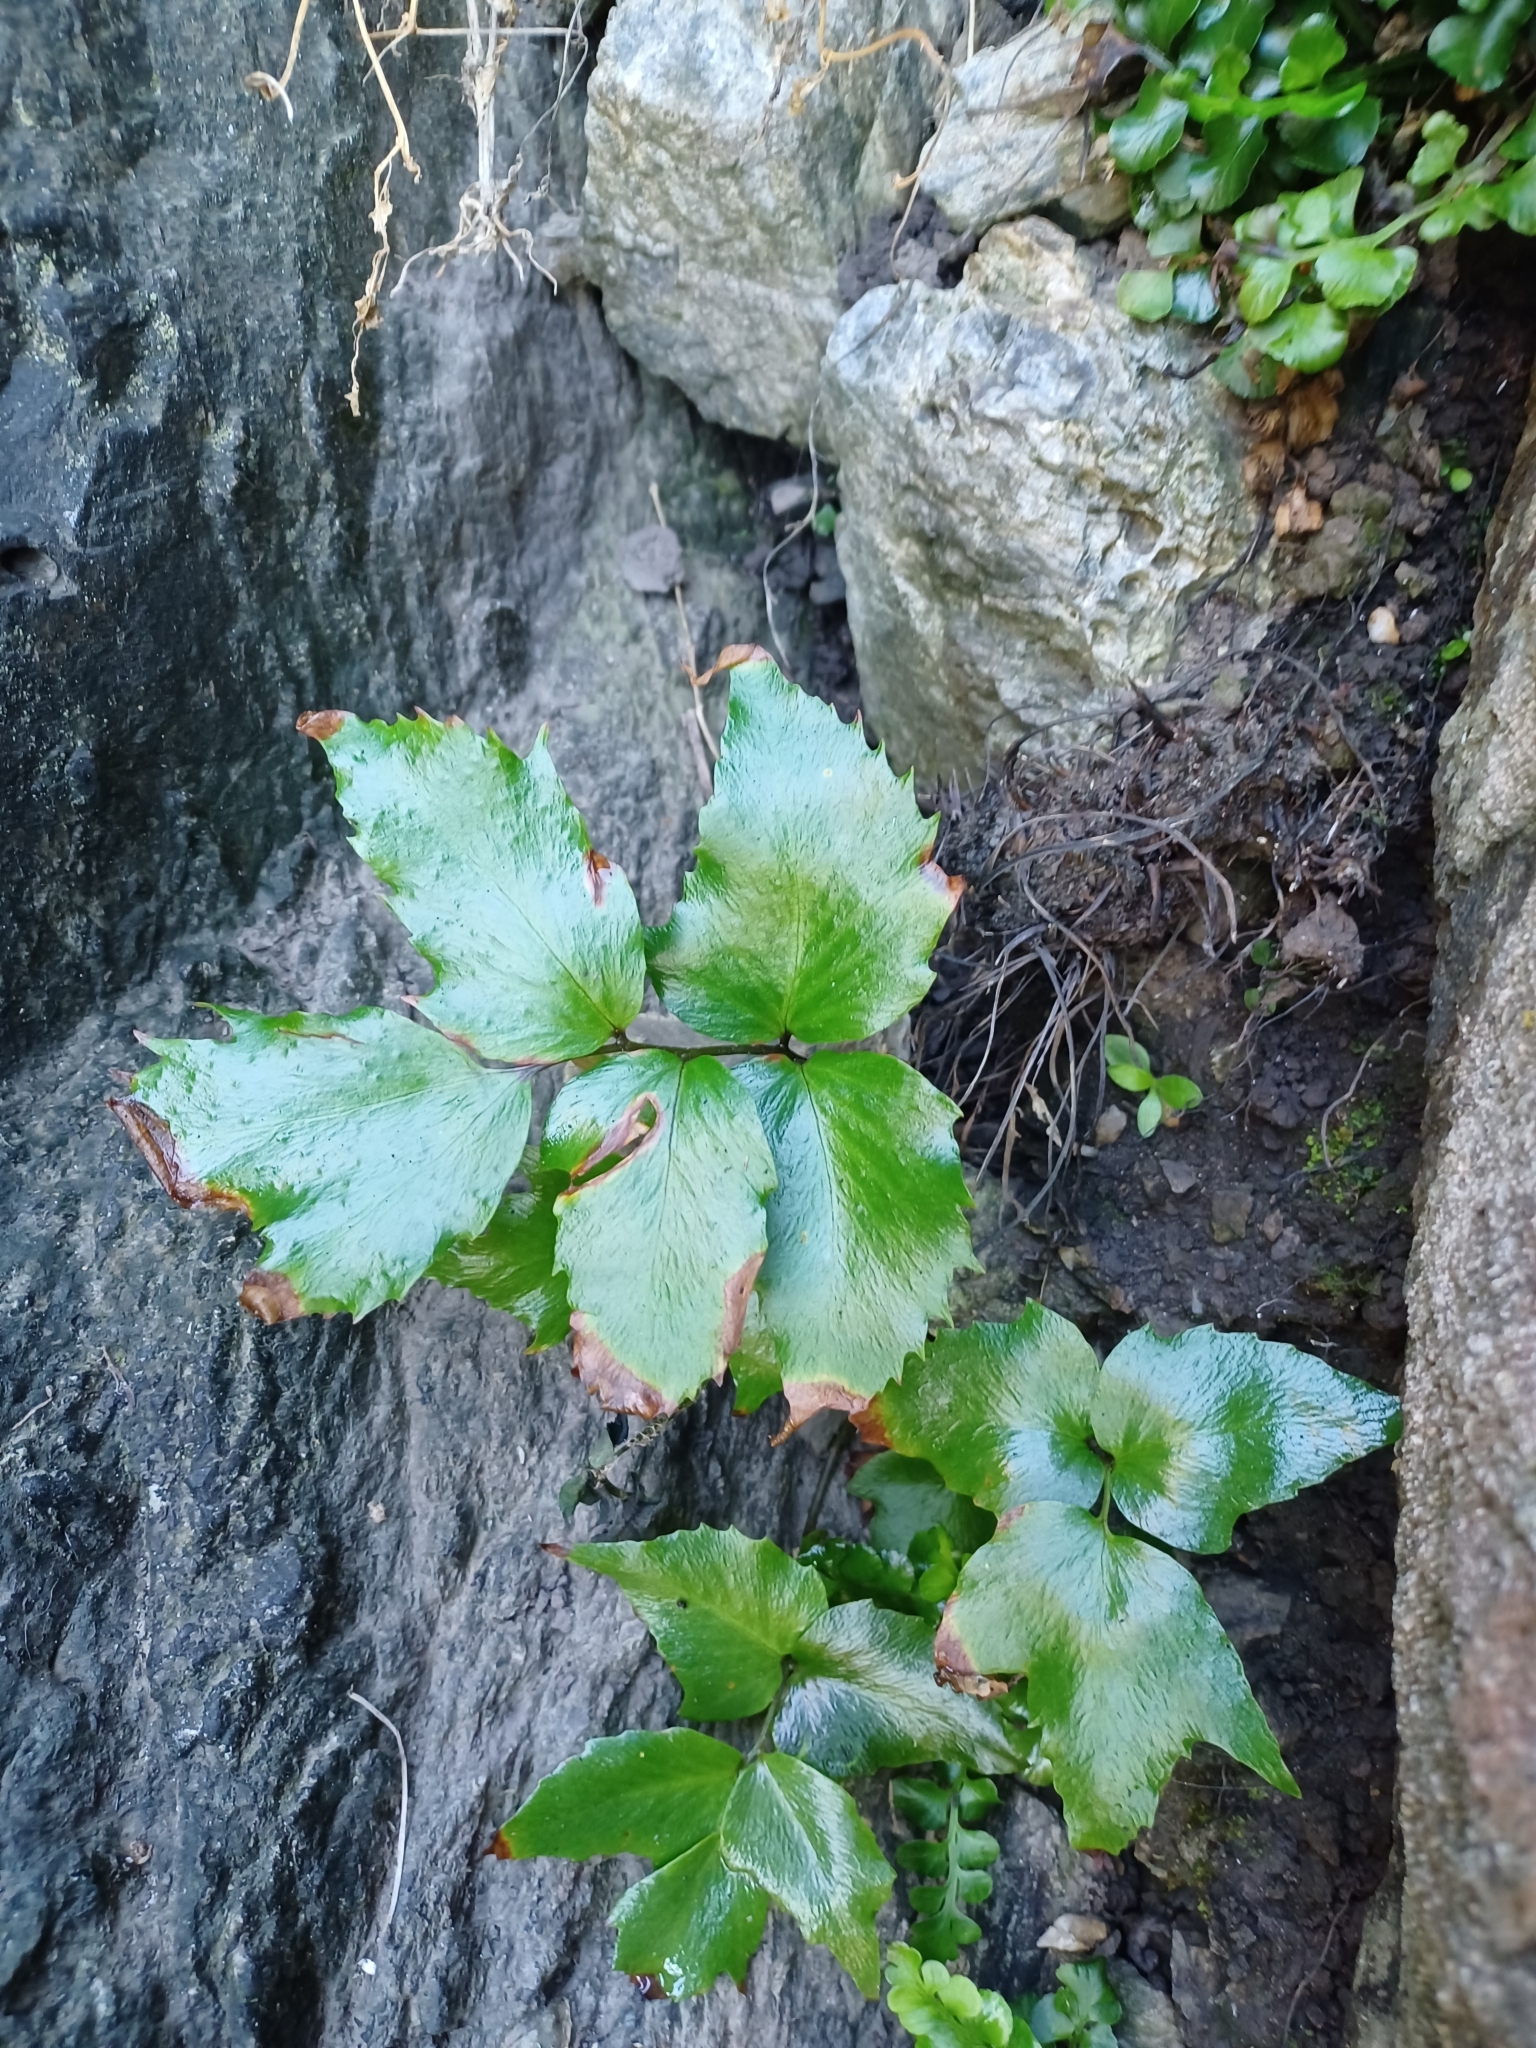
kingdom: Plantae
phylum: Tracheophyta
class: Polypodiopsida
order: Polypodiales
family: Dryopteridaceae
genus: Cyrtomium
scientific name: Cyrtomium falcatum
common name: House holly-fern
